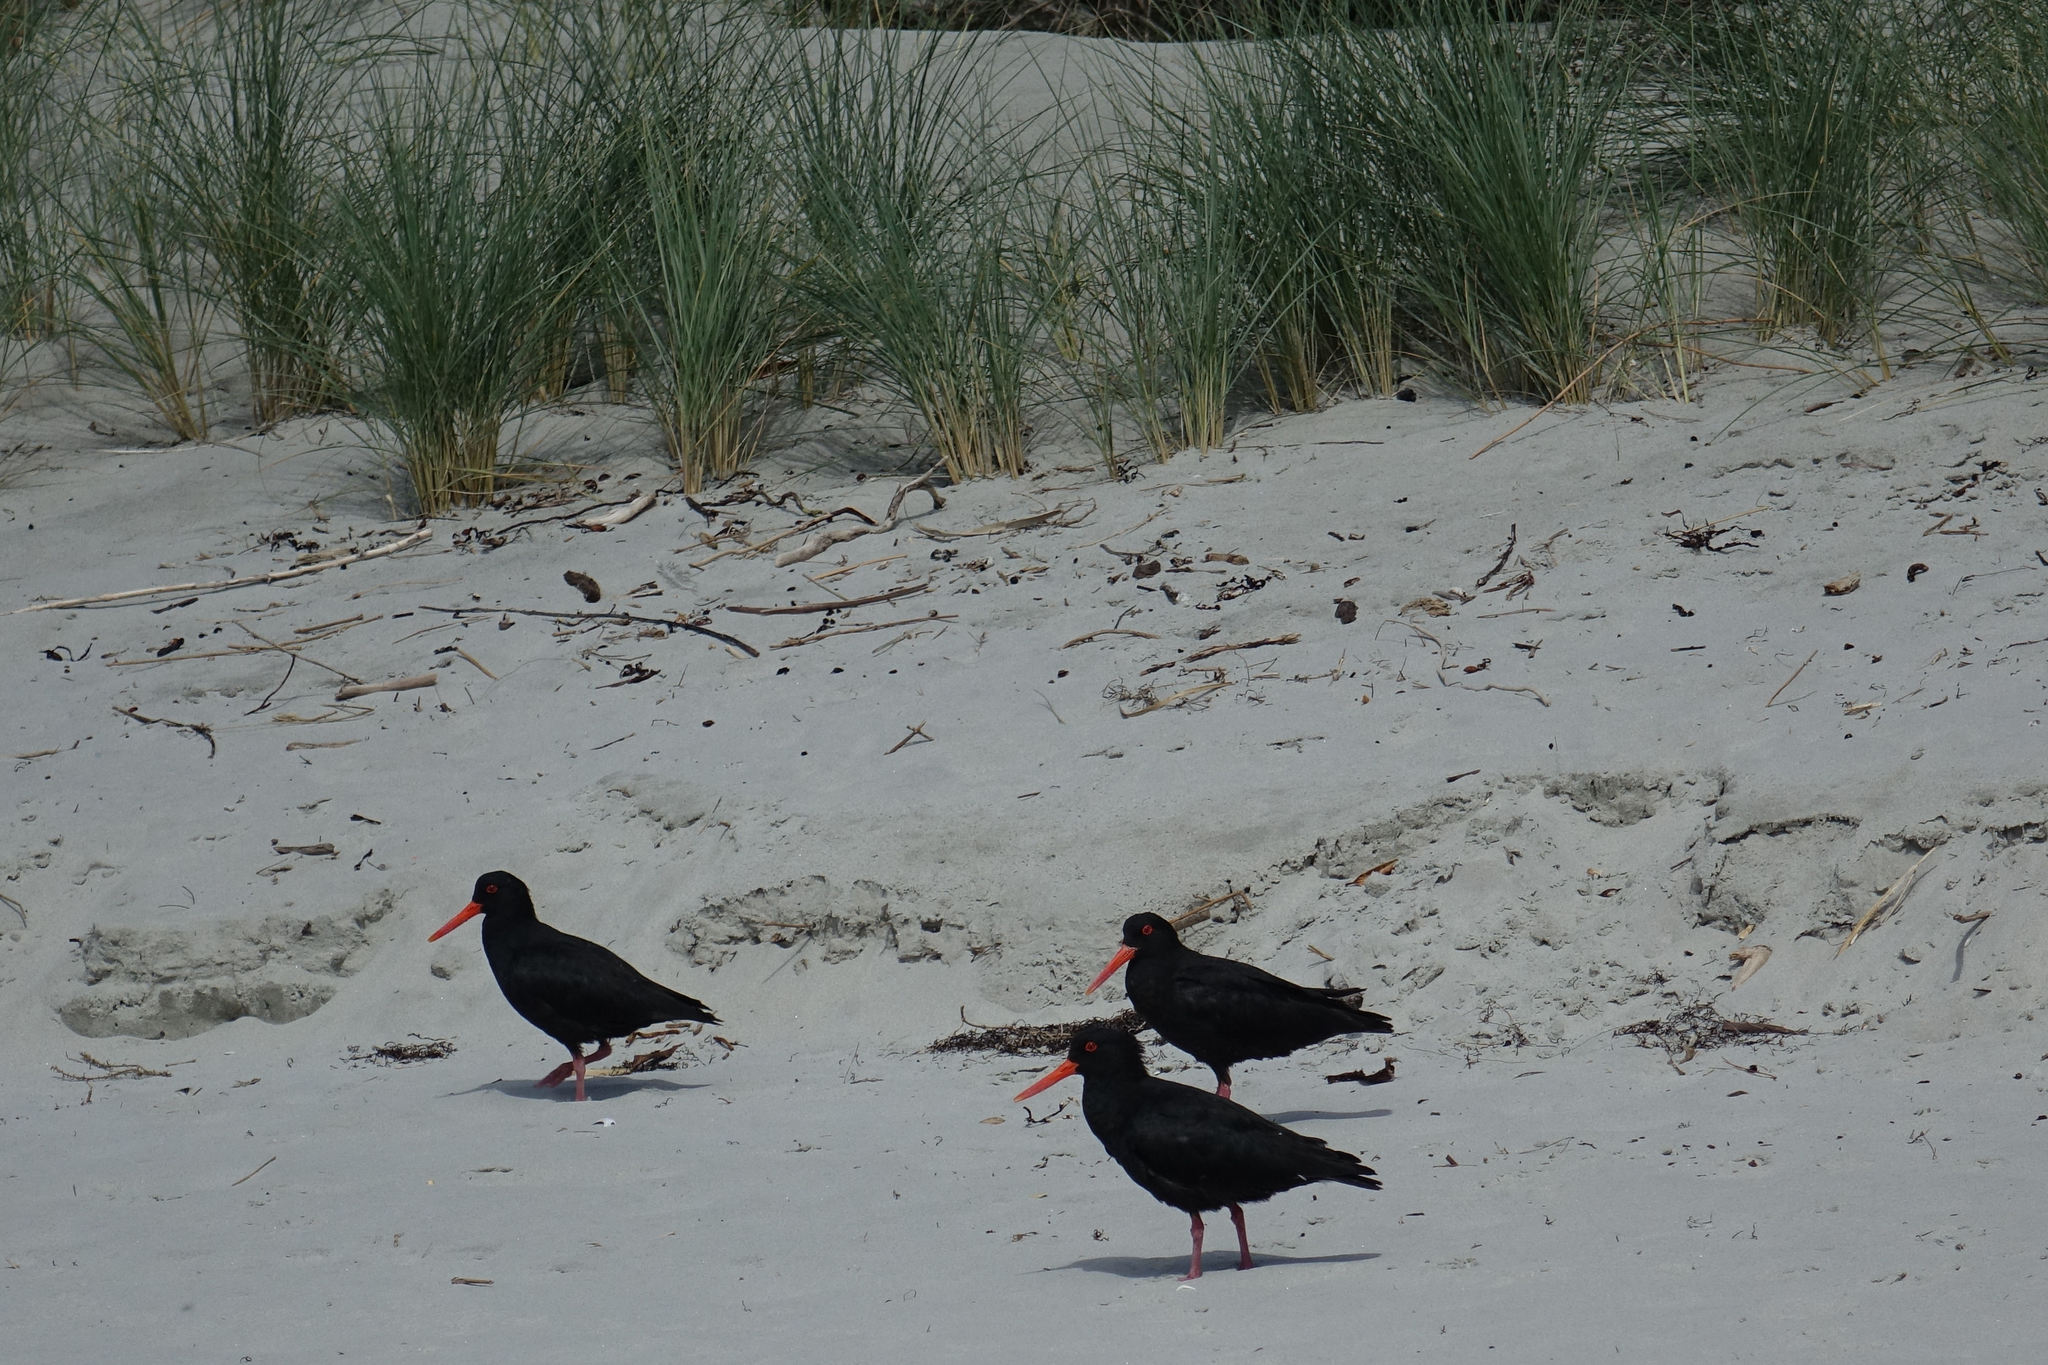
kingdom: Animalia
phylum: Chordata
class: Aves
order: Charadriiformes
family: Haematopodidae
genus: Haematopus
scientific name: Haematopus unicolor
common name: Variable oystercatcher
